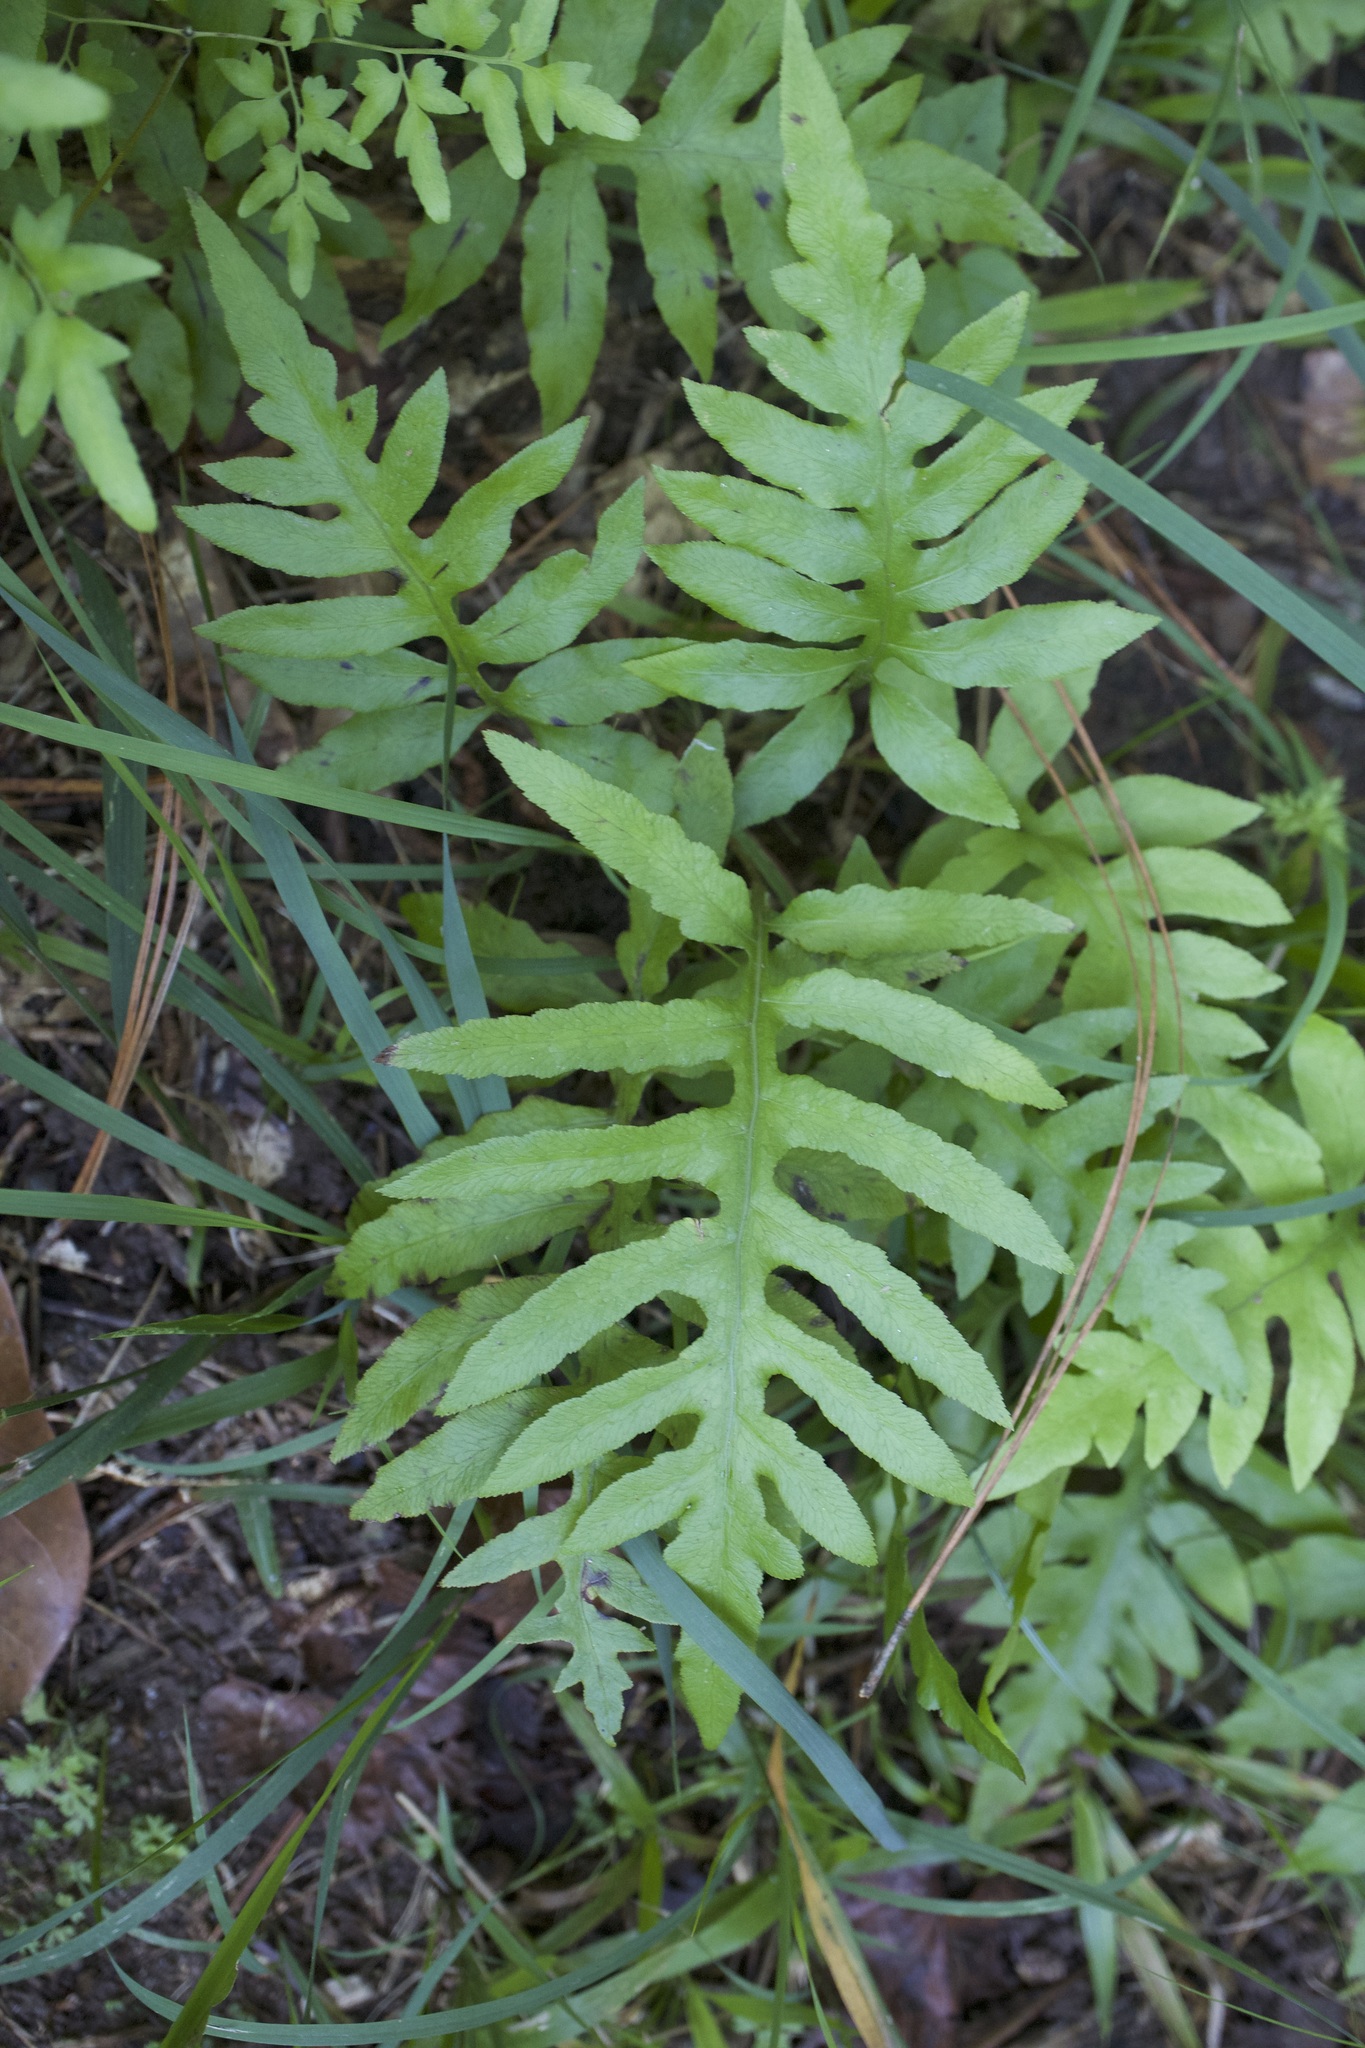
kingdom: Plantae
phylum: Tracheophyta
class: Polypodiopsida
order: Polypodiales
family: Blechnaceae
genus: Lorinseria
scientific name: Lorinseria areolata
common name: Dwarf chain fern
